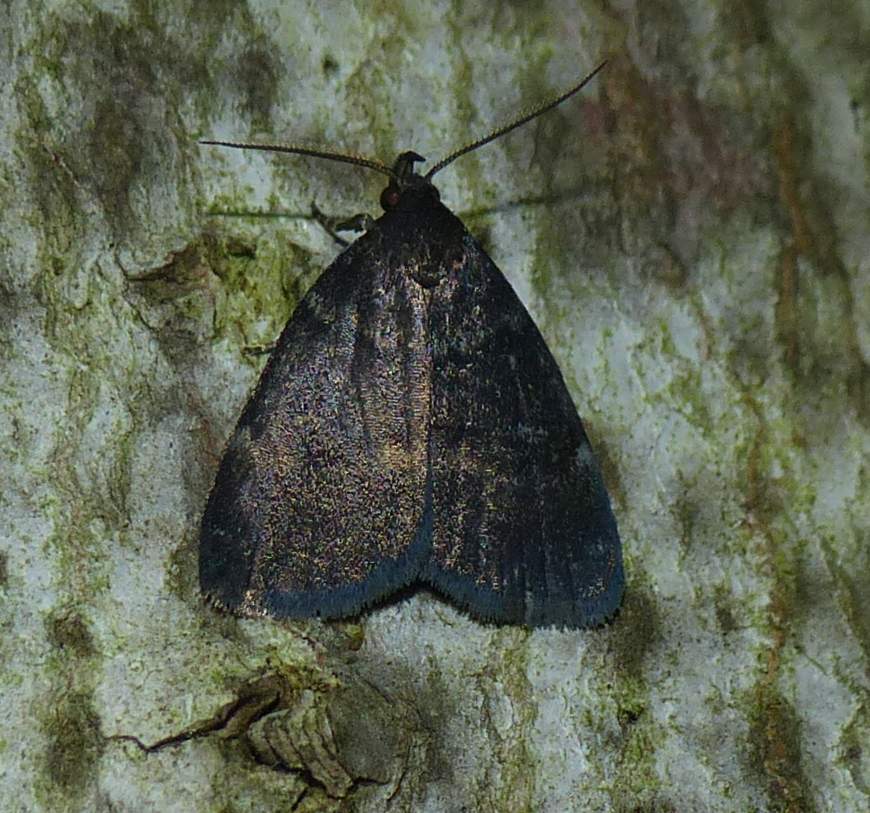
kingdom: Animalia
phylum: Arthropoda
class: Insecta
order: Lepidoptera
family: Erebidae
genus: Idia
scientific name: Idia rotundalis
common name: Rotund idia moth
